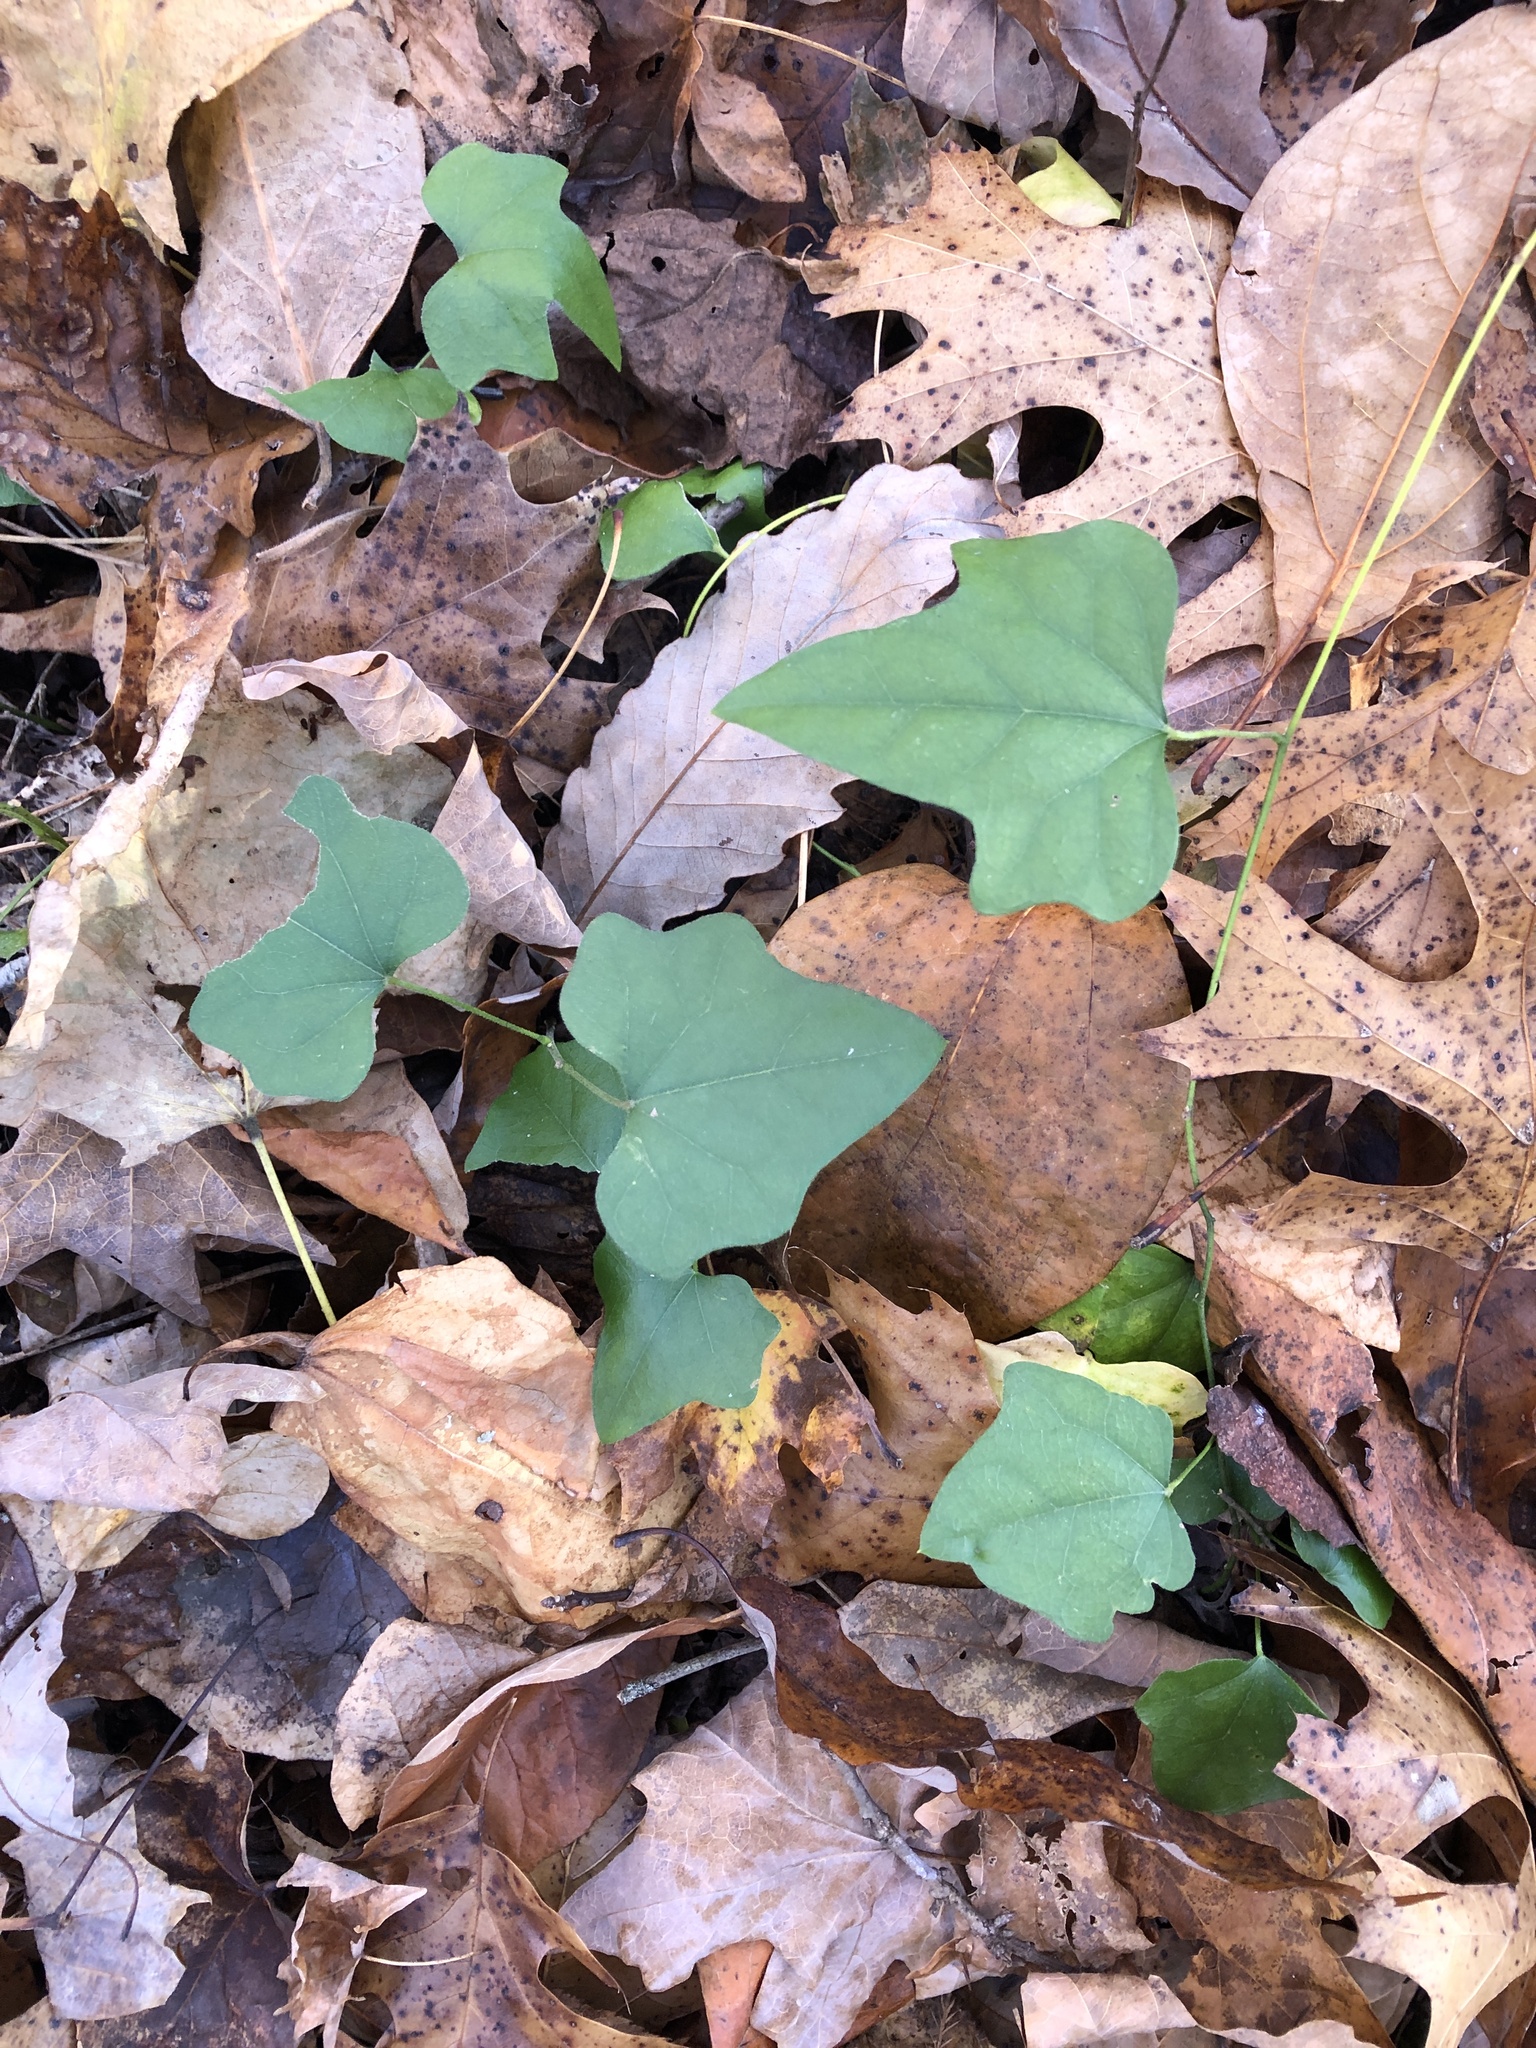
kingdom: Plantae
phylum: Tracheophyta
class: Magnoliopsida
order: Ranunculales
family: Menispermaceae
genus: Cocculus
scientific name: Cocculus carolinus
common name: Carolina moonseed
